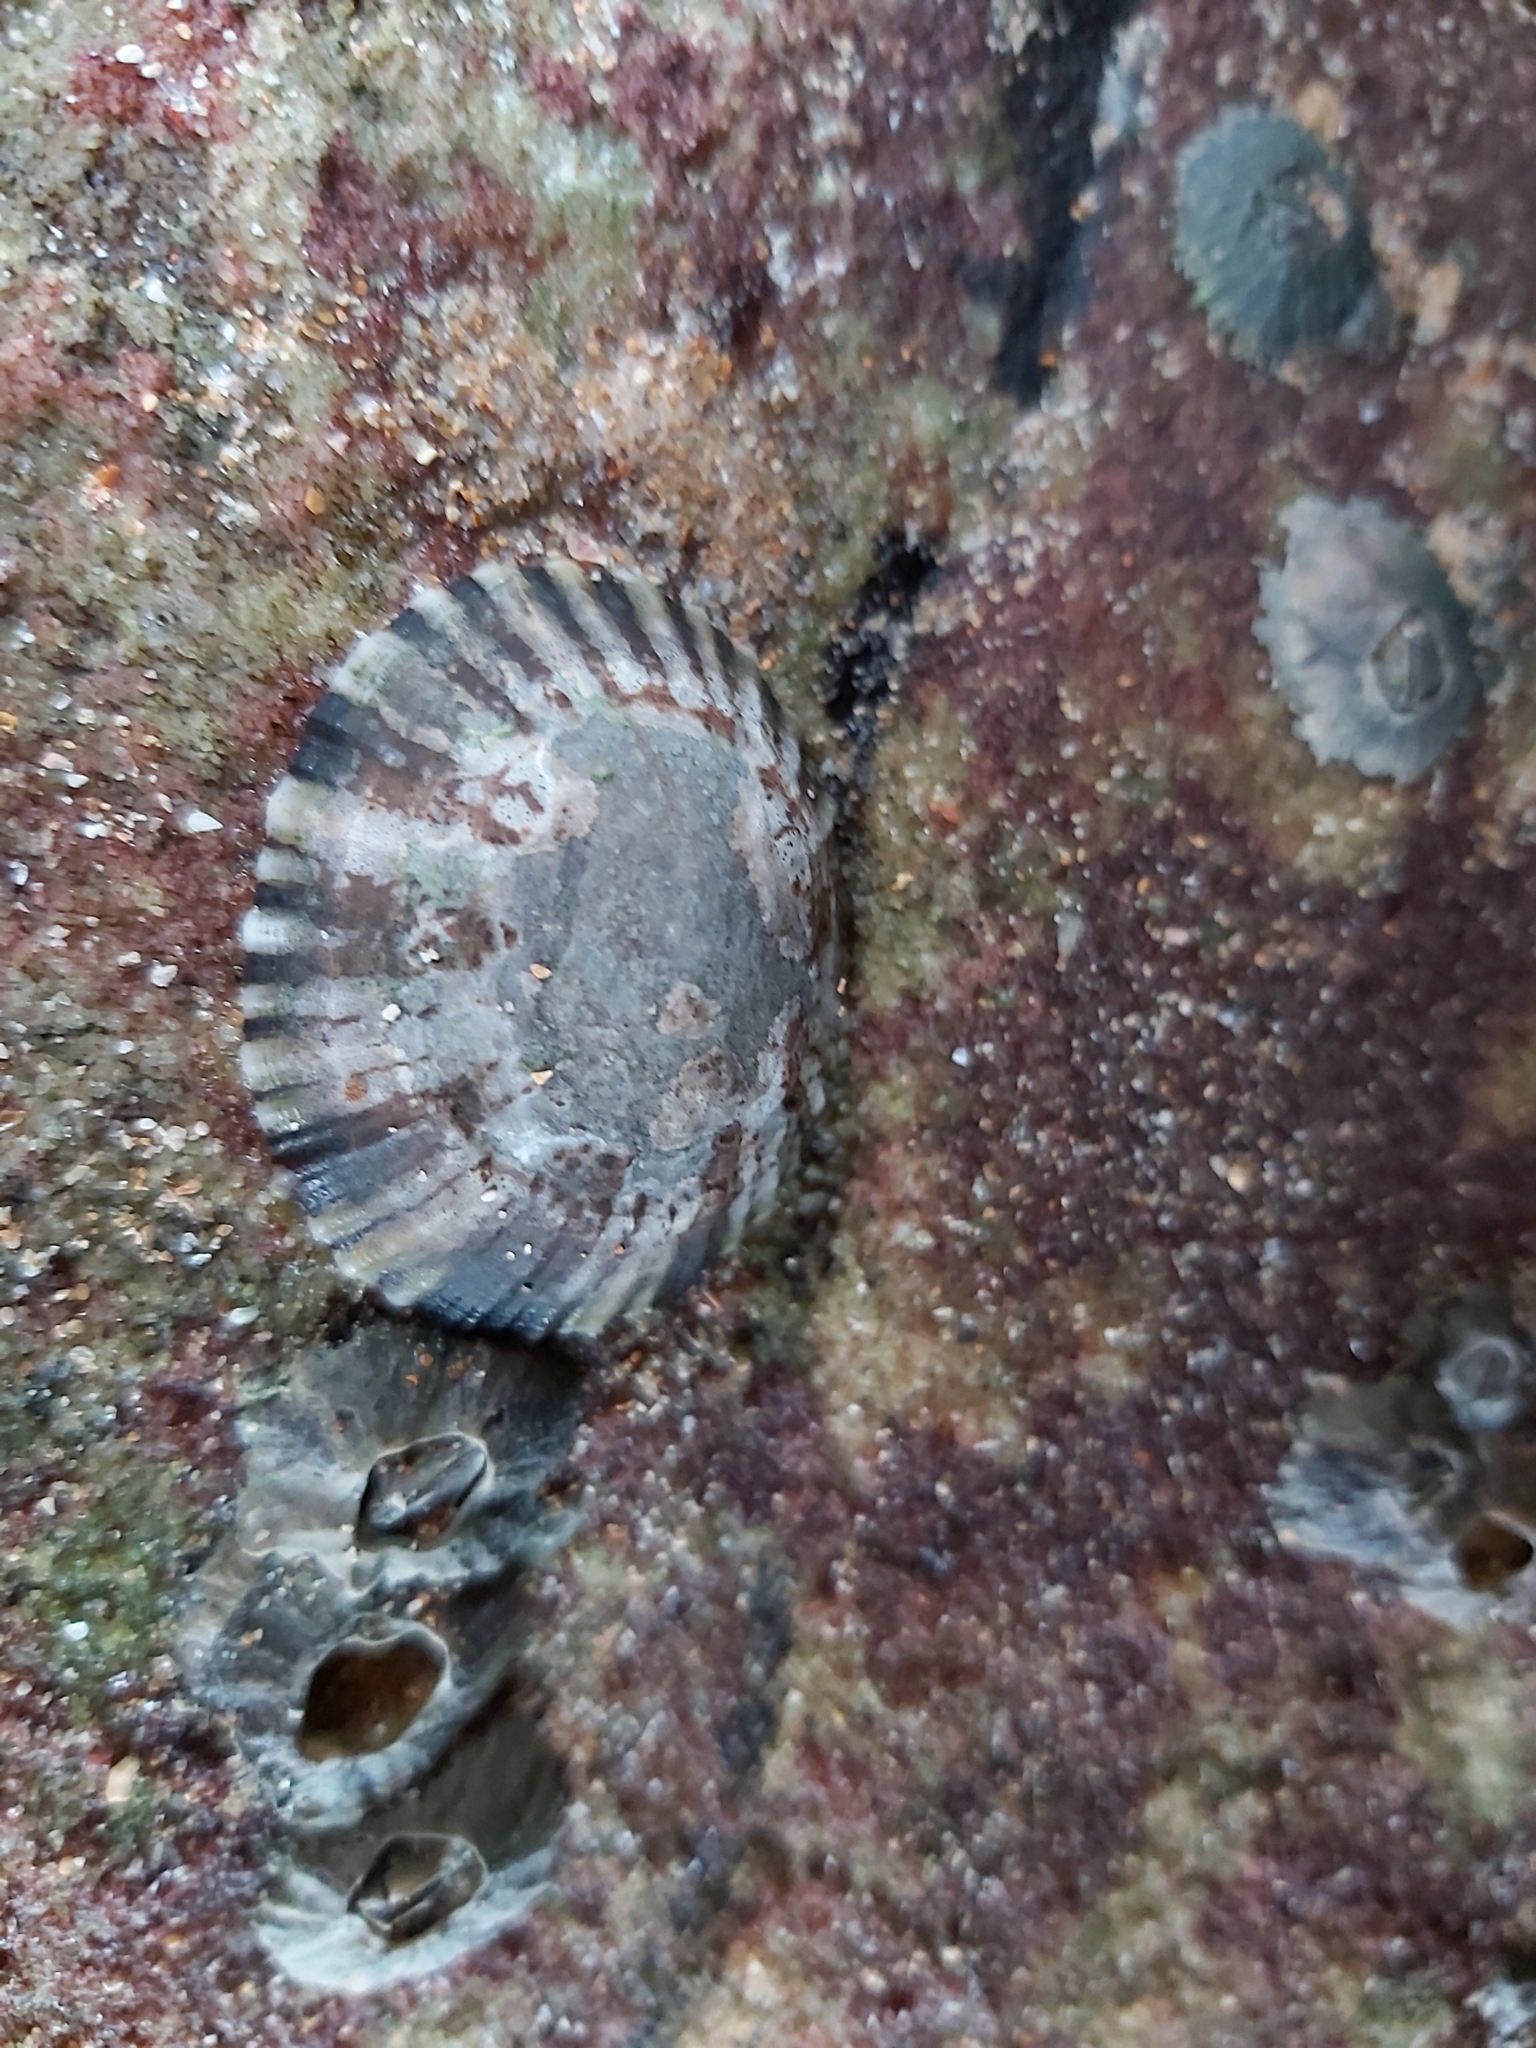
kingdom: Animalia
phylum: Mollusca
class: Gastropoda
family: Nacellidae
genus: Cellana
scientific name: Cellana tramoserica
